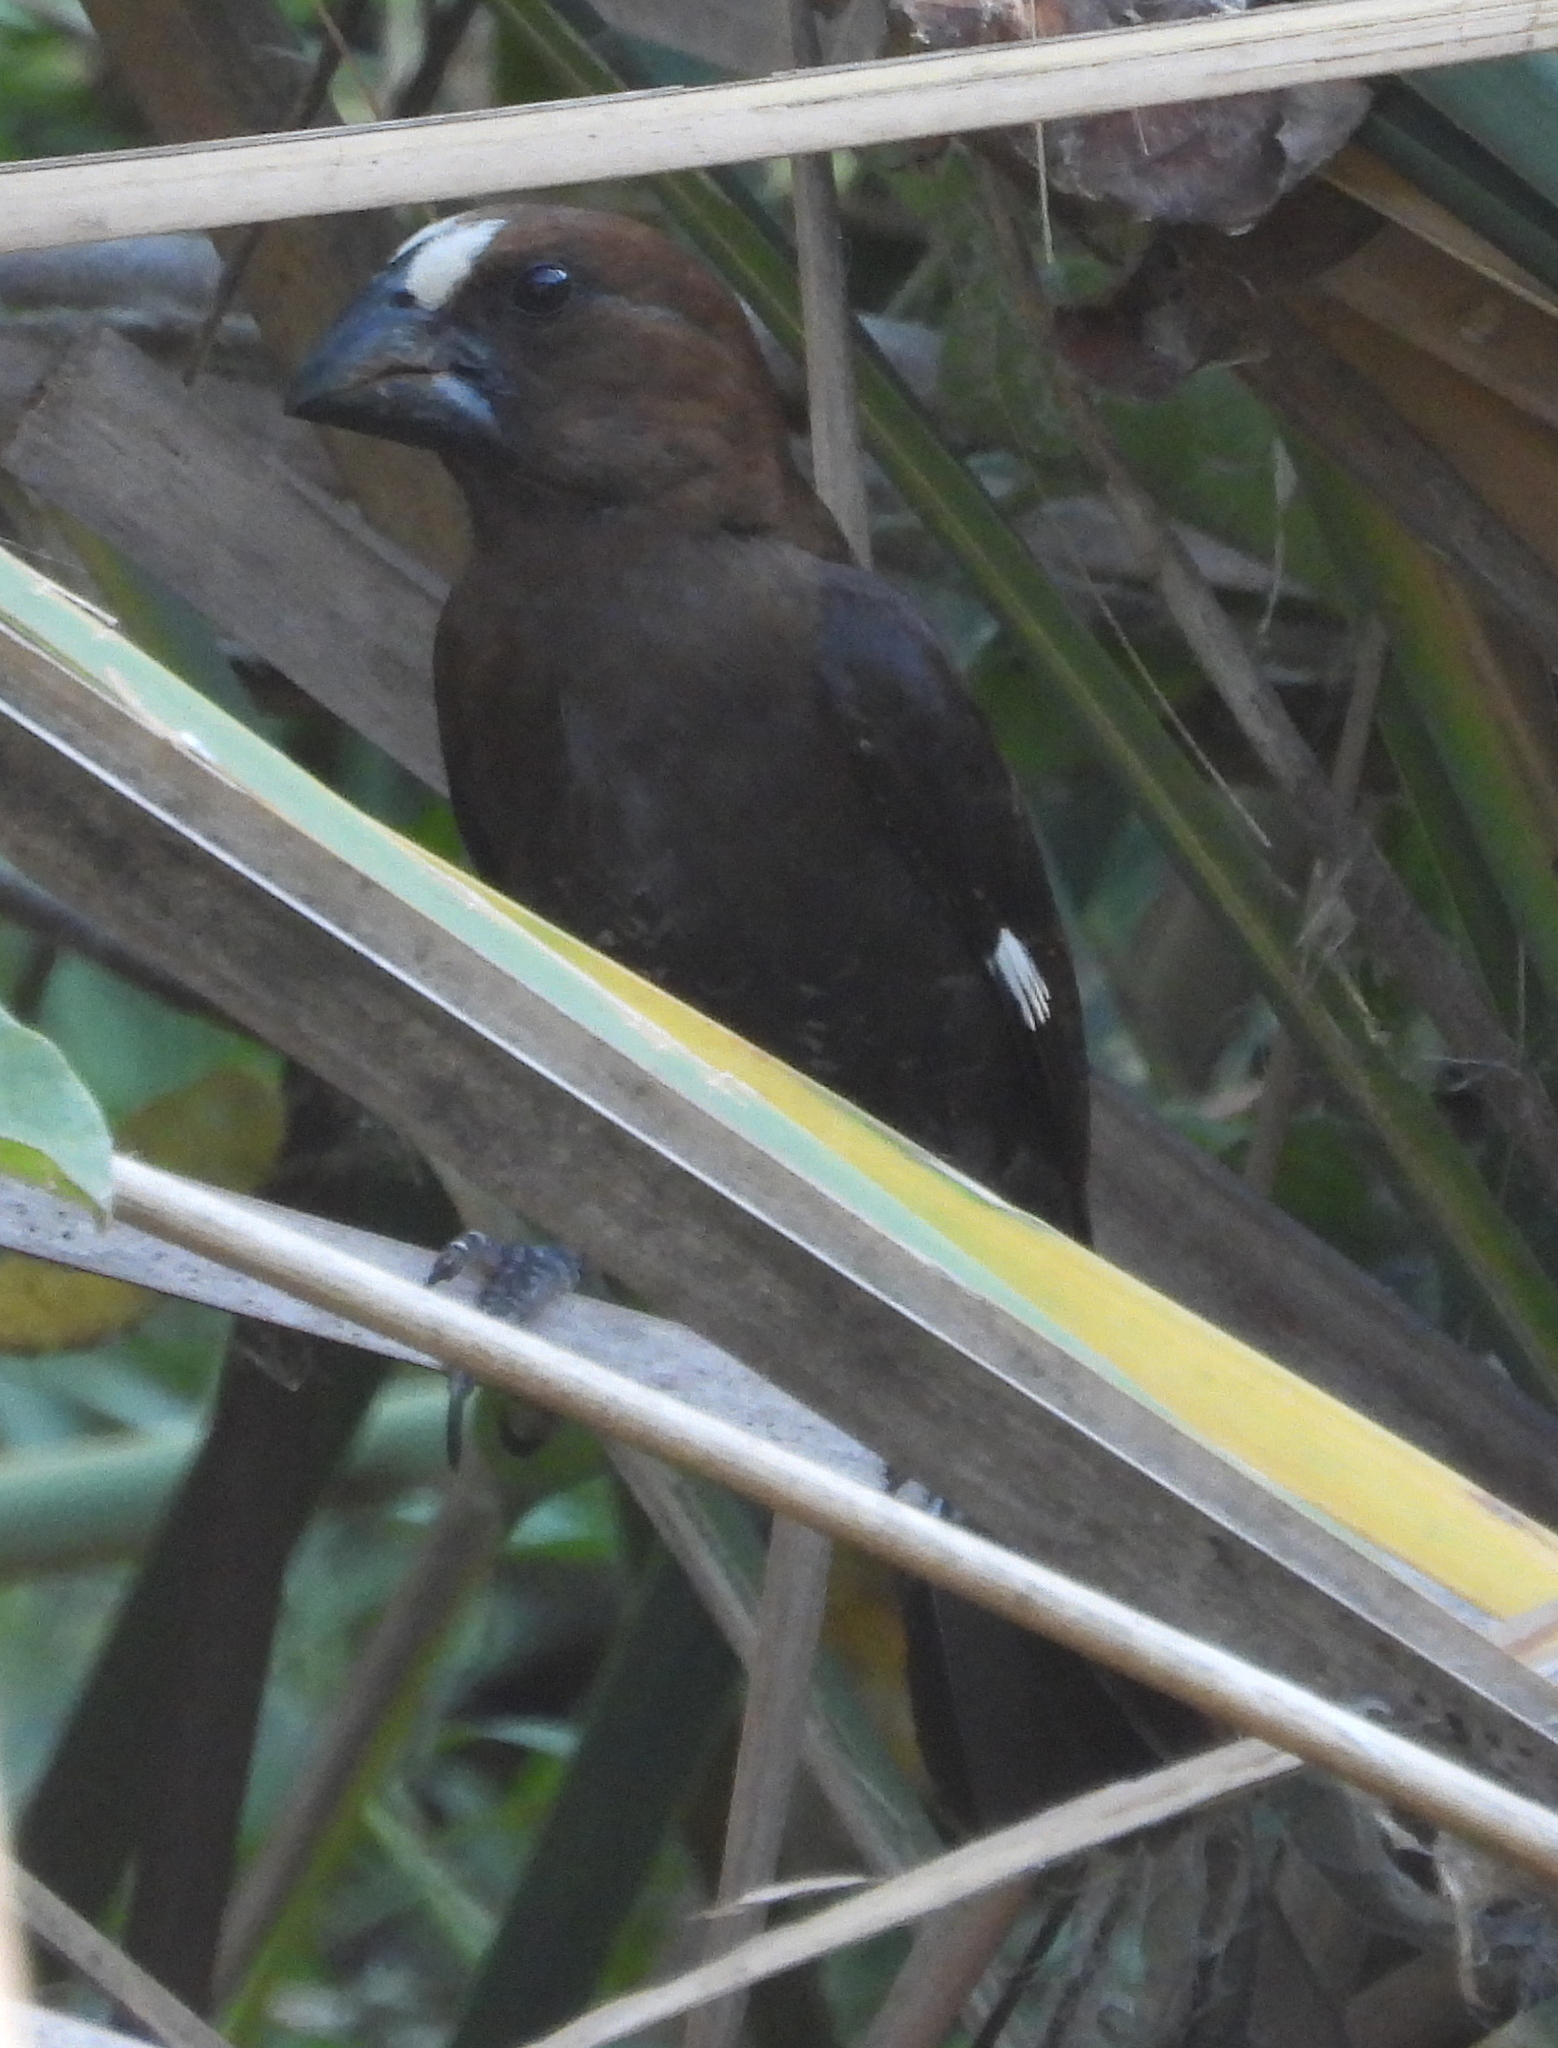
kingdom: Animalia
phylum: Chordata
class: Aves
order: Passeriformes
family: Ploceidae
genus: Amblyospiza
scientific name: Amblyospiza albifrons
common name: Thick-billed weaver
